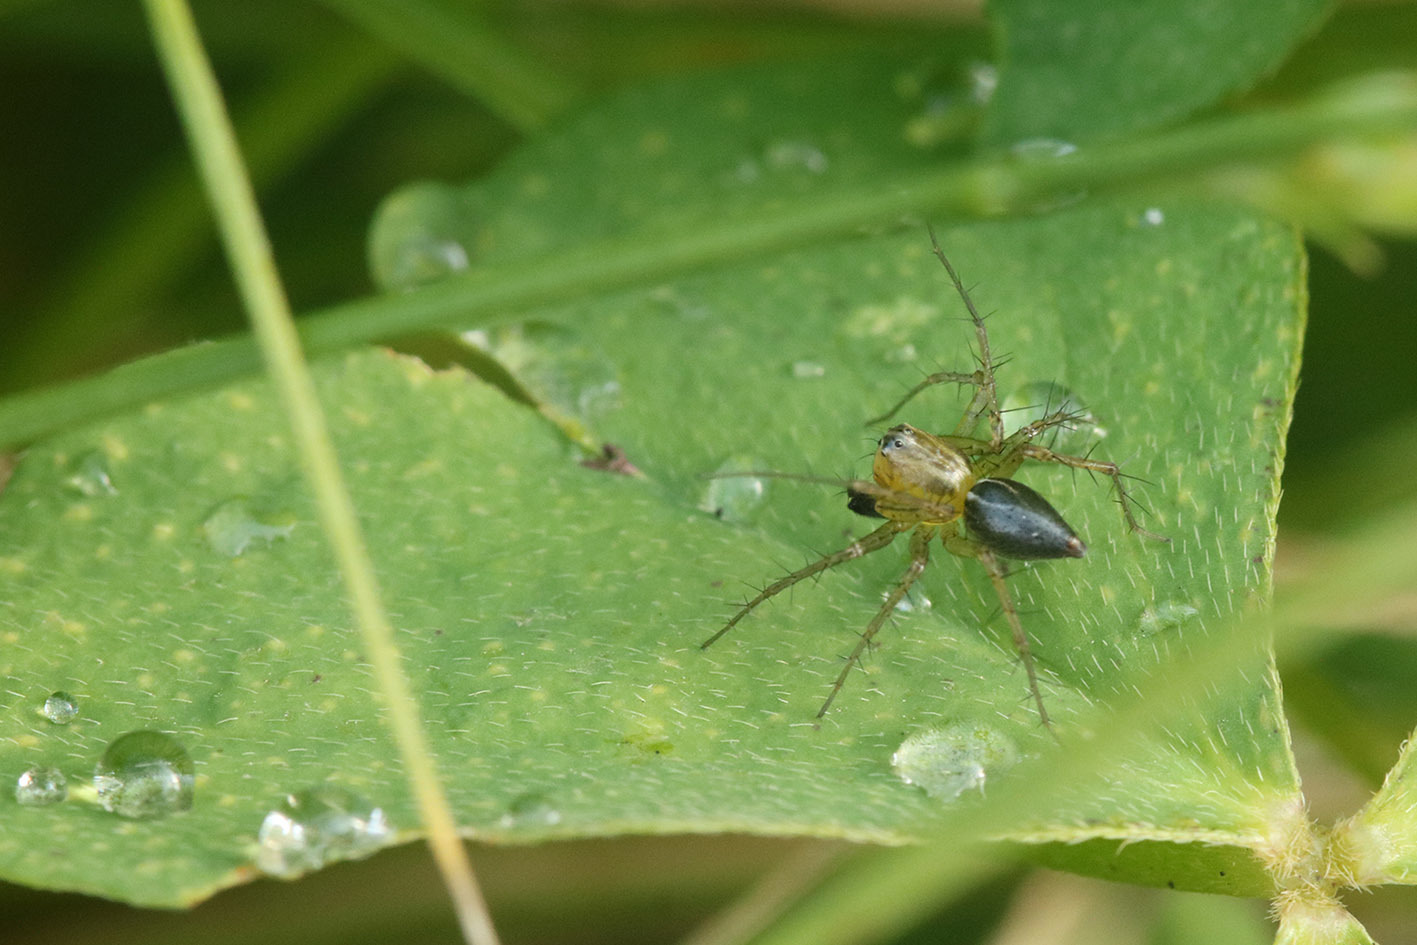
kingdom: Animalia
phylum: Arthropoda
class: Arachnida
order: Araneae
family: Oxyopidae
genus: Oxyopes
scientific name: Oxyopes salticus
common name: Lynx spiders
